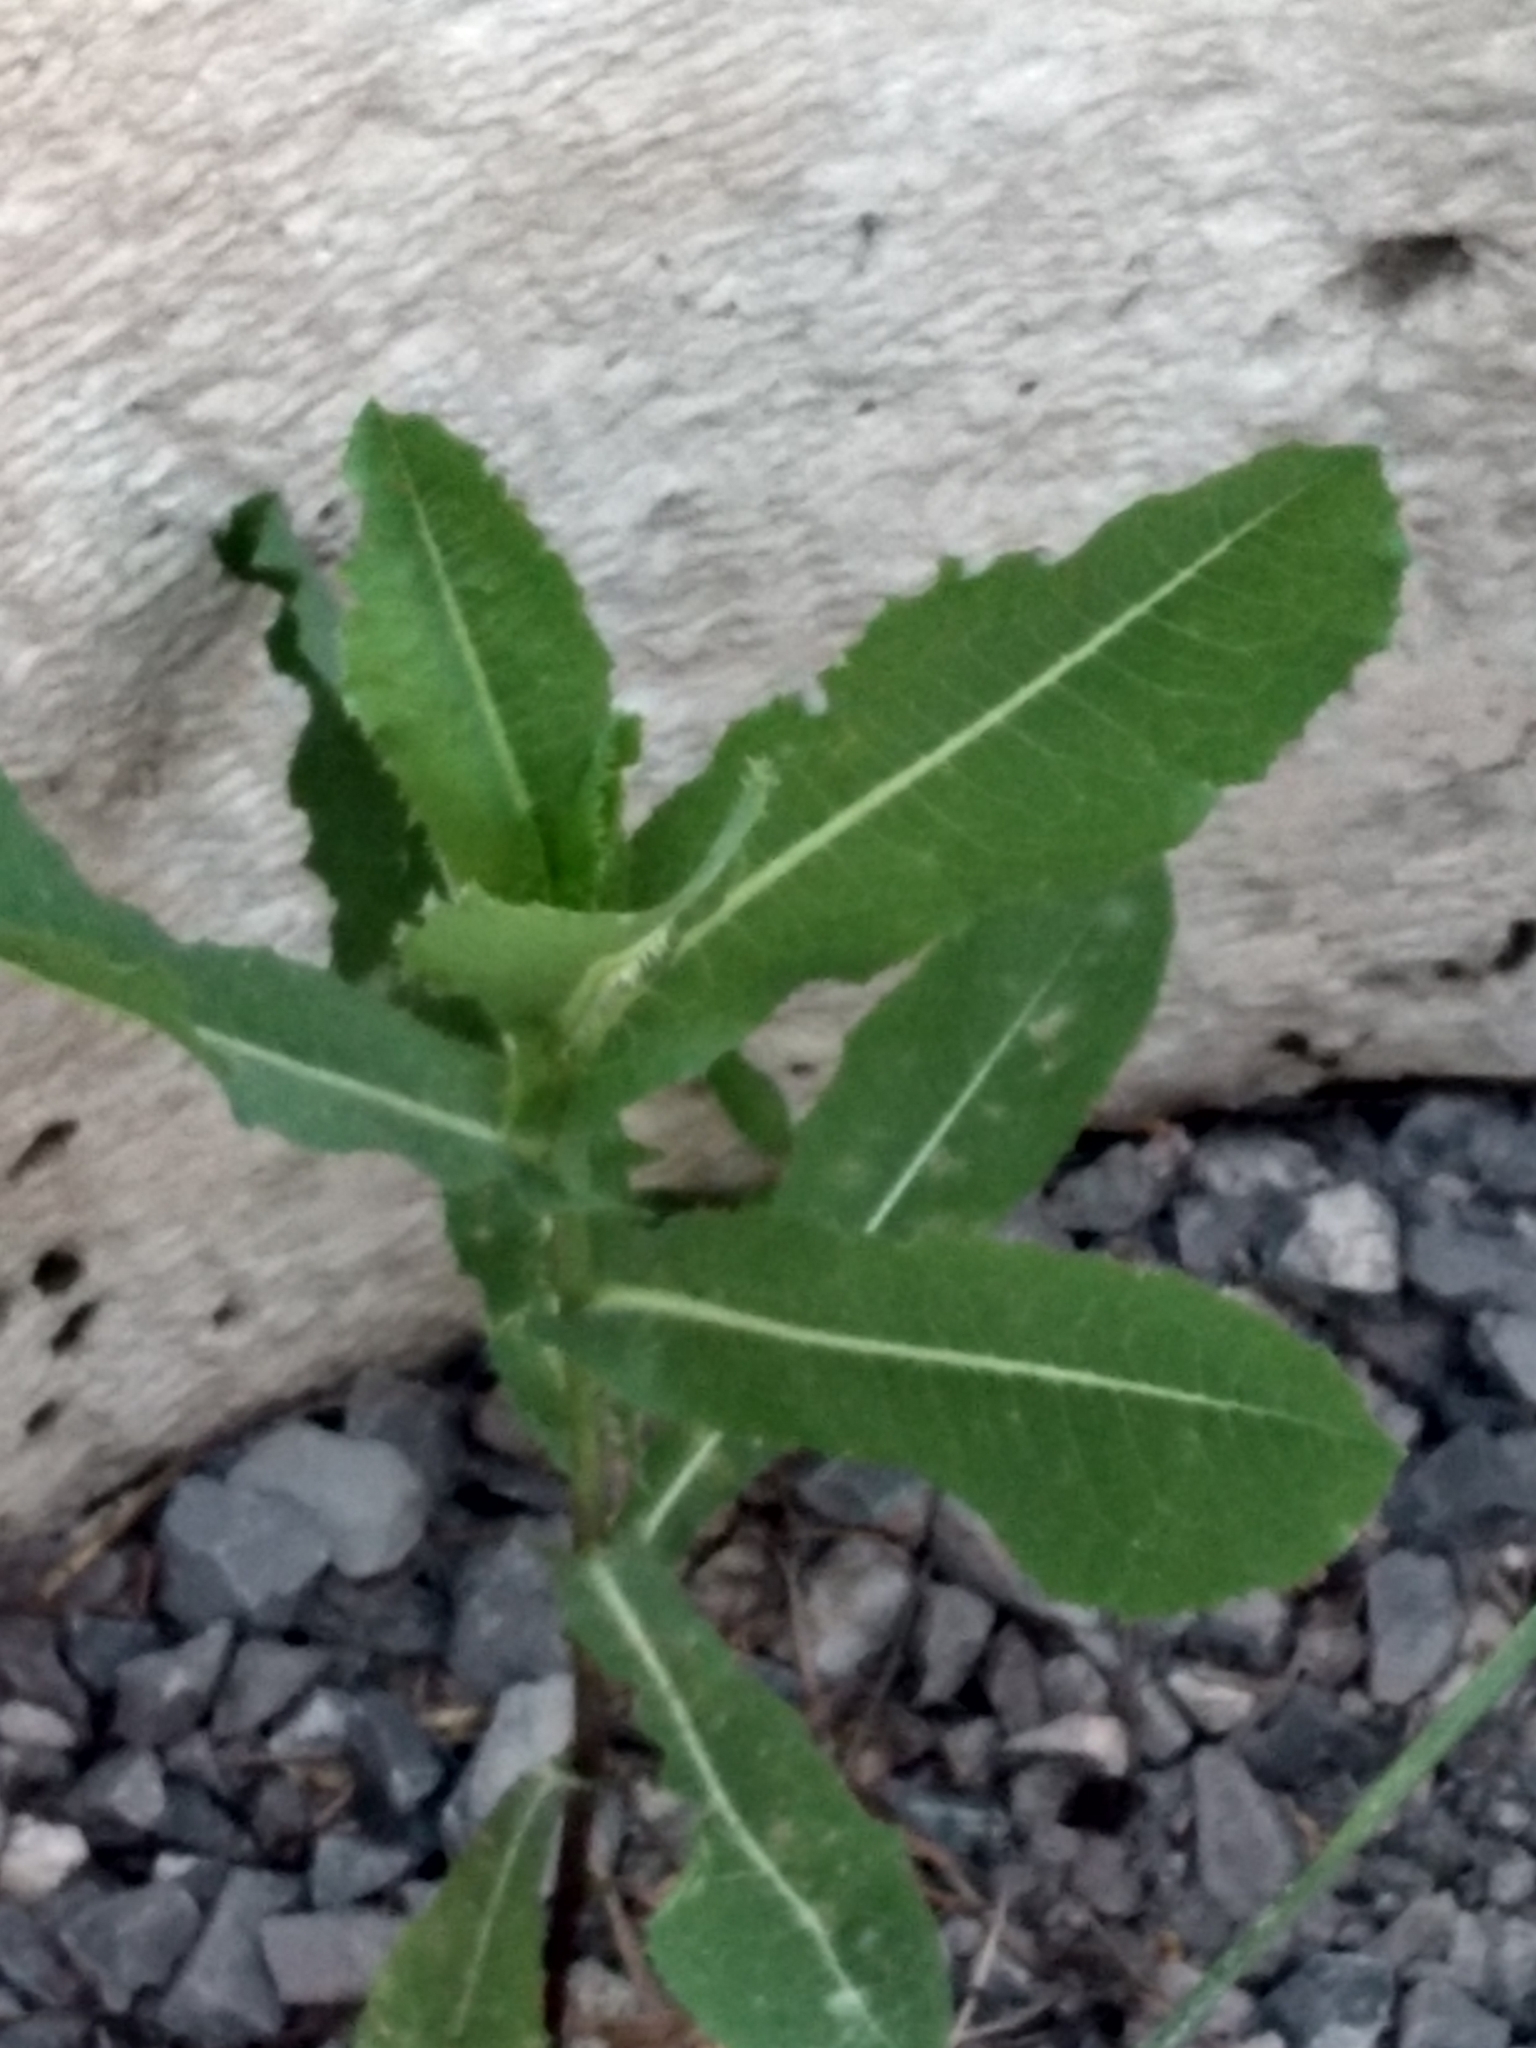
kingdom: Plantae
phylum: Tracheophyta
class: Magnoliopsida
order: Asterales
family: Asteraceae
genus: Lactuca
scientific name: Lactuca serriola
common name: Prickly lettuce
